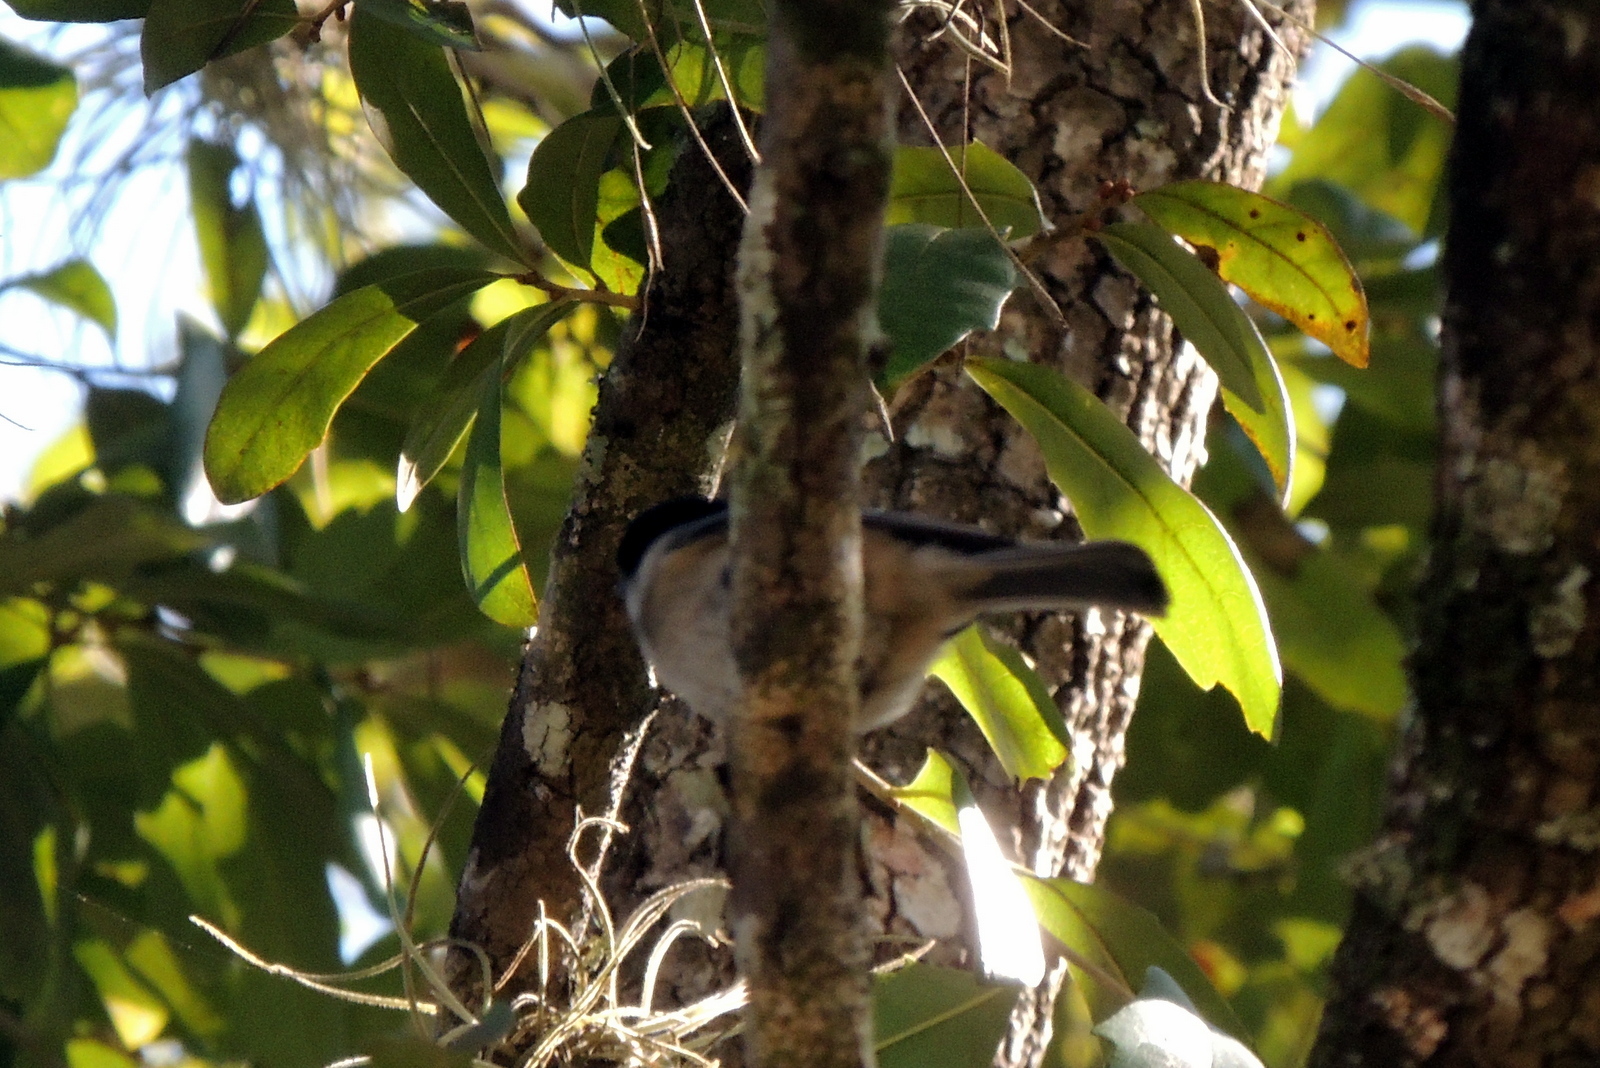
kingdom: Animalia
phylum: Chordata
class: Aves
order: Passeriformes
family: Paridae
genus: Poecile
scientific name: Poecile carolinensis
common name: Carolina chickadee
